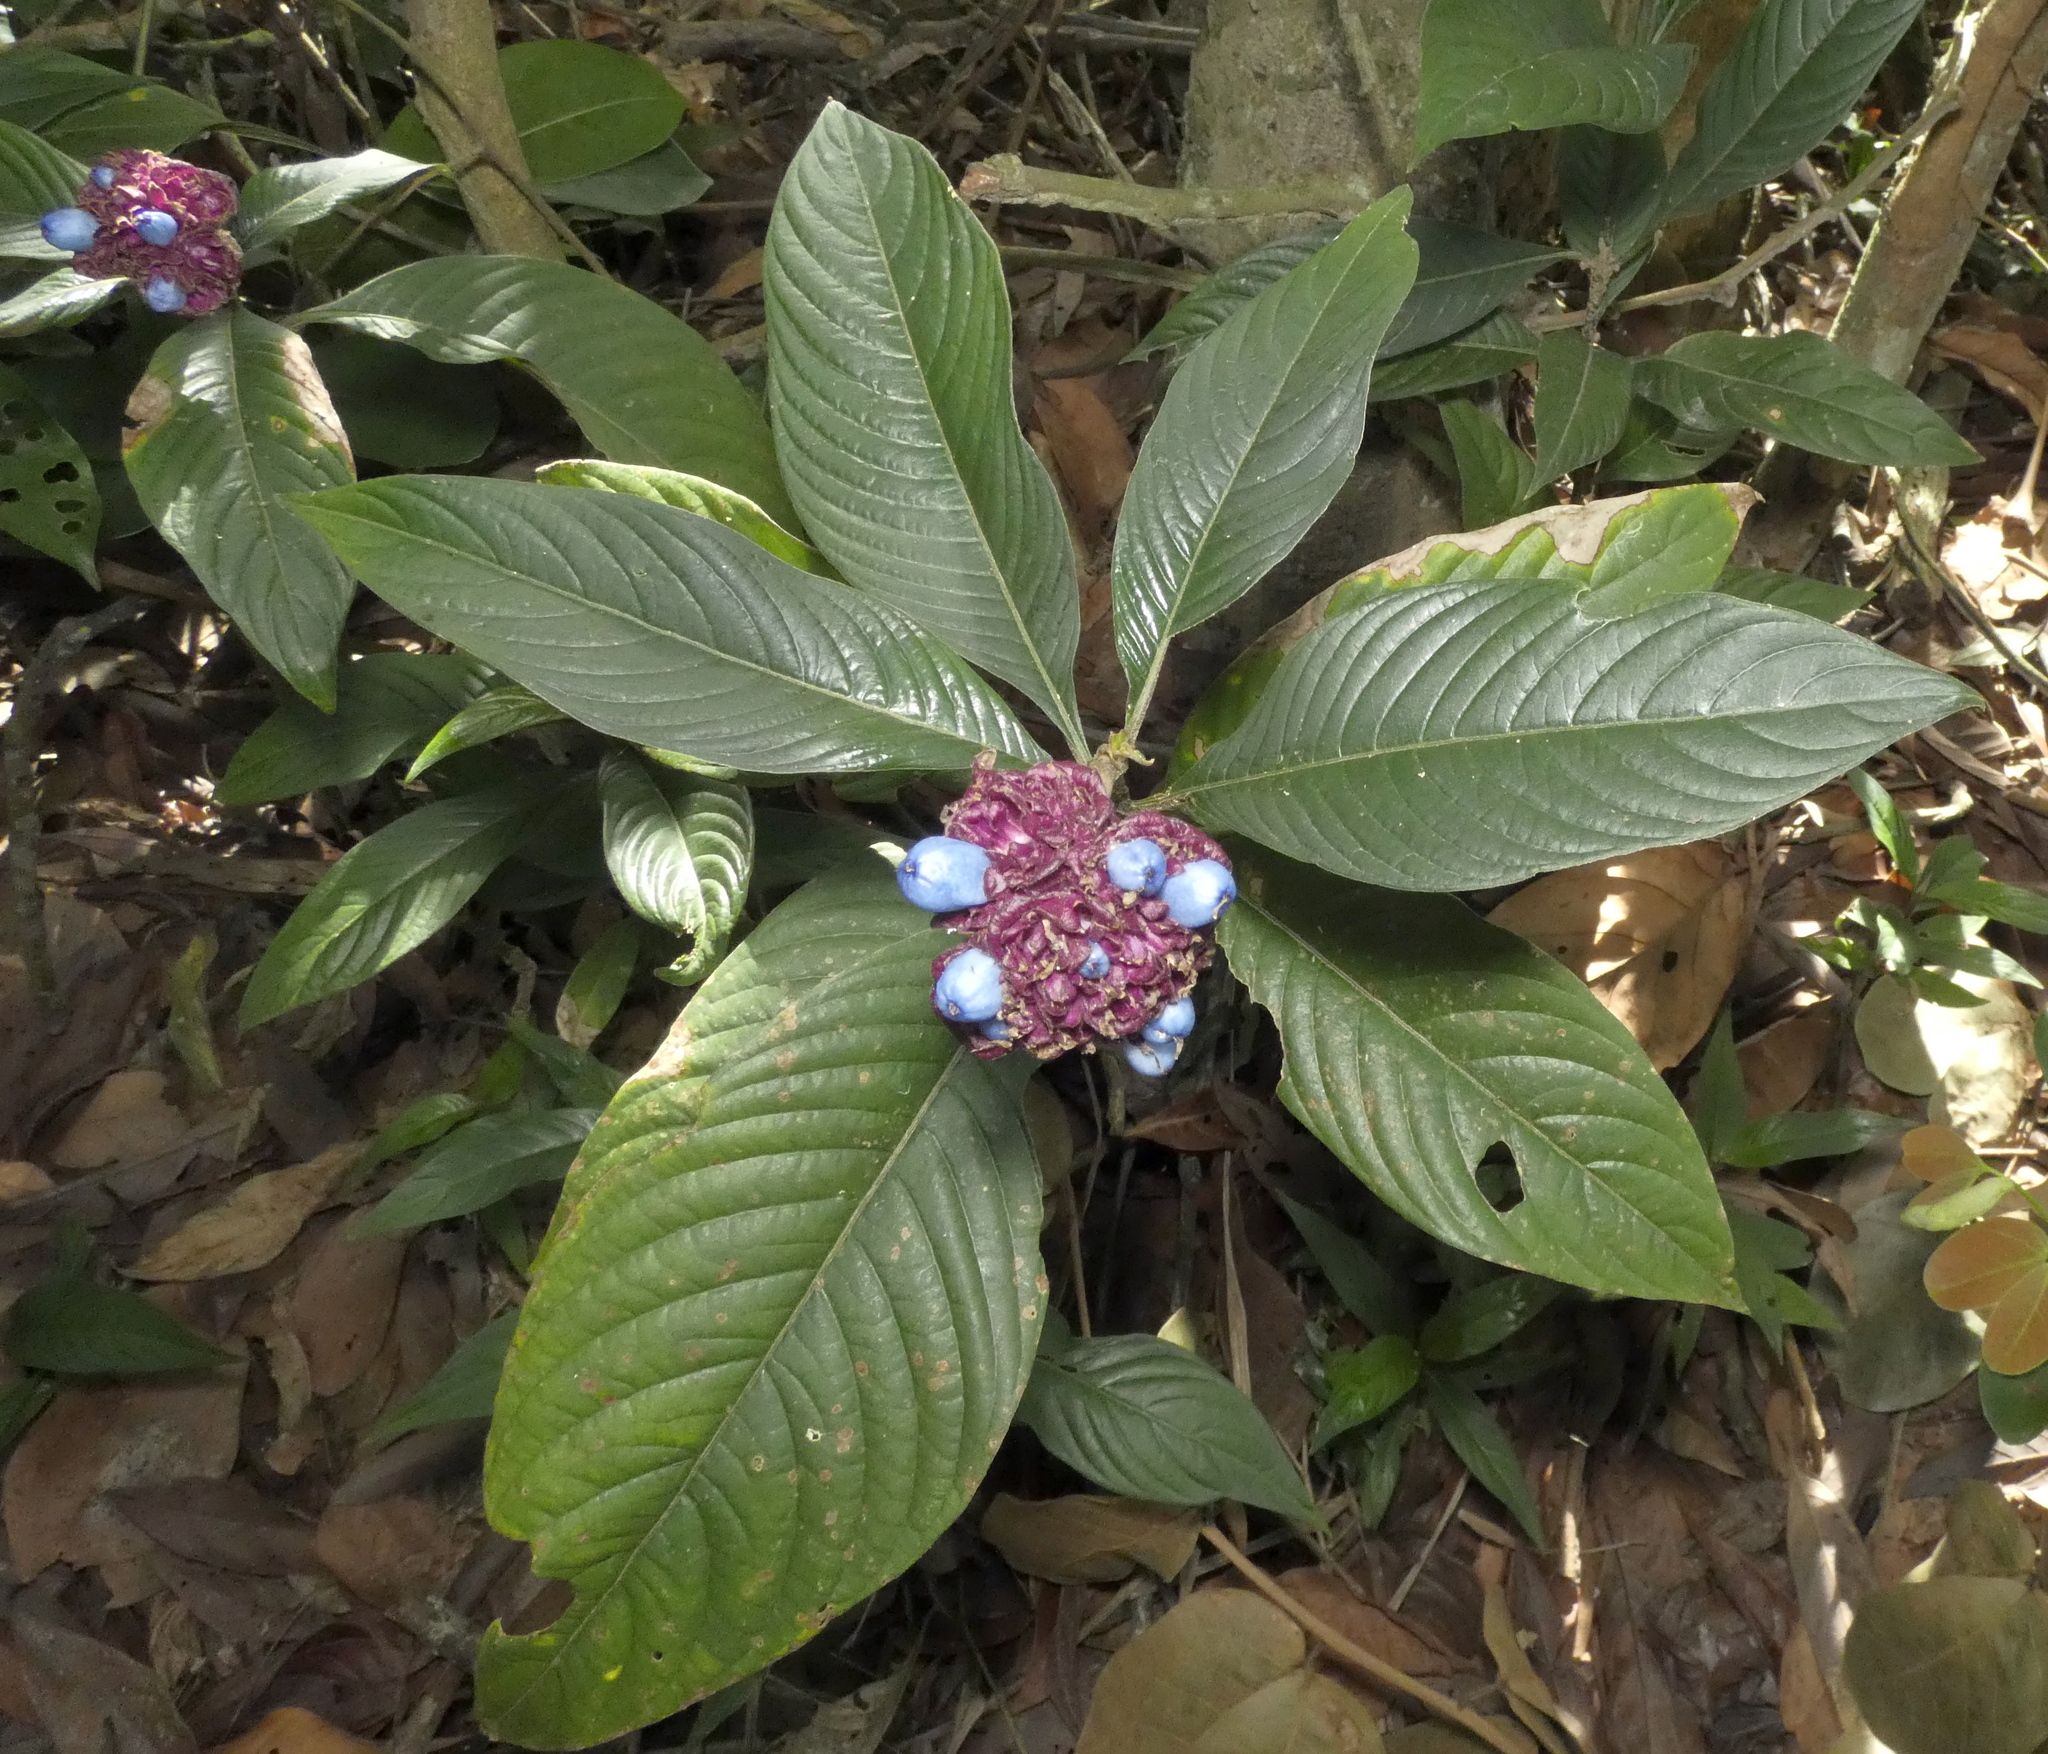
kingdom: Plantae
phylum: Tracheophyta
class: Magnoliopsida
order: Gentianales
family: Rubiaceae
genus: Palicourea
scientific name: Palicourea colorata
